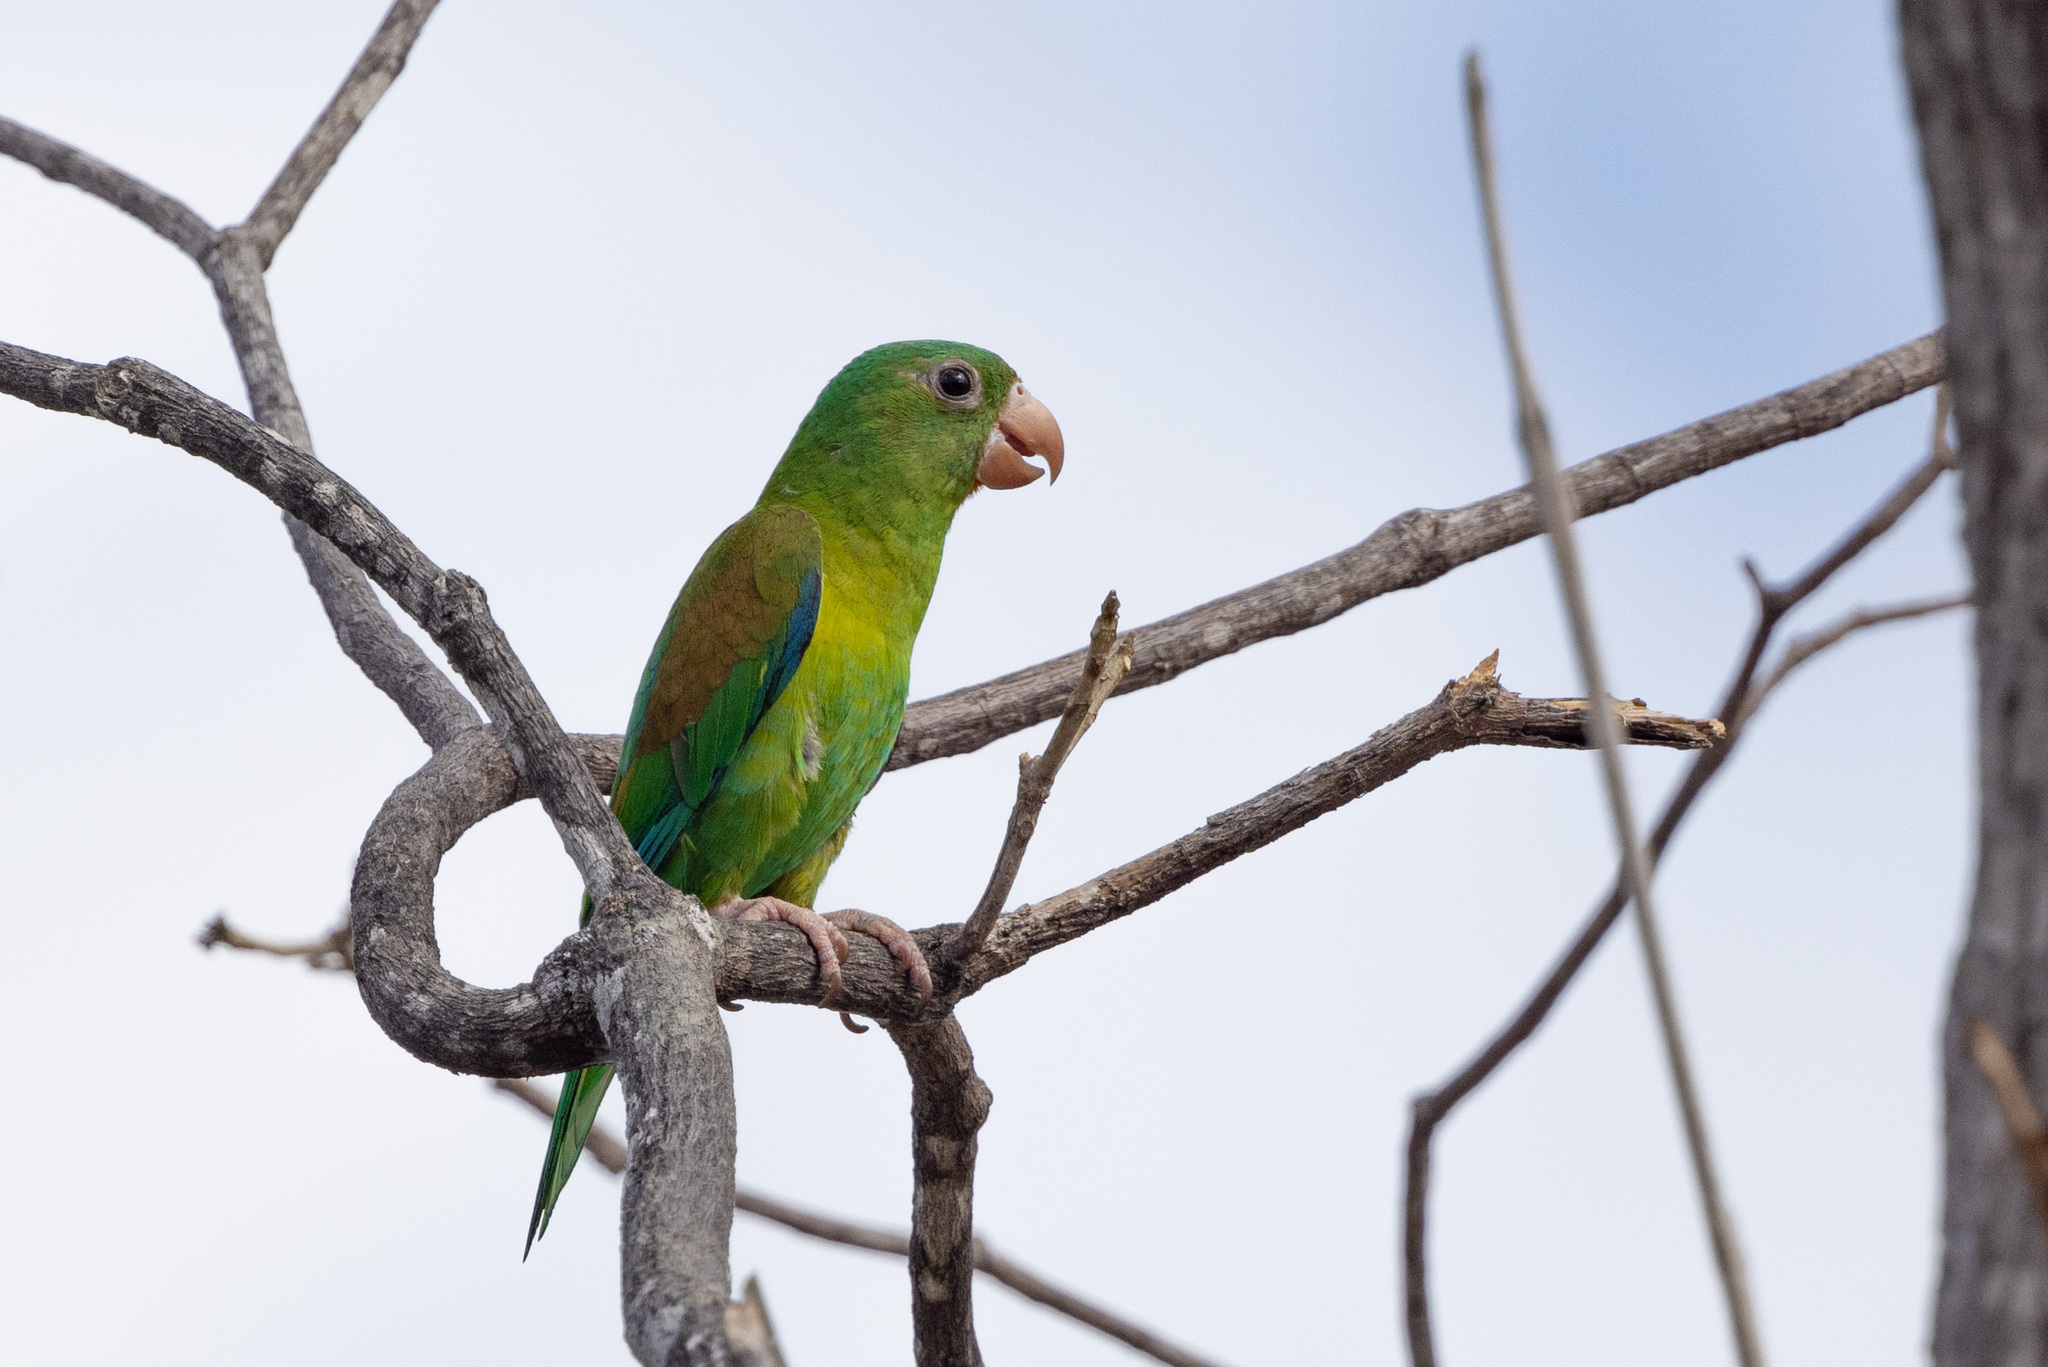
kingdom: Animalia
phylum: Chordata
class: Aves
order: Psittaciformes
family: Psittacidae
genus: Brotogeris
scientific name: Brotogeris jugularis
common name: Orange-chinned parakeet
